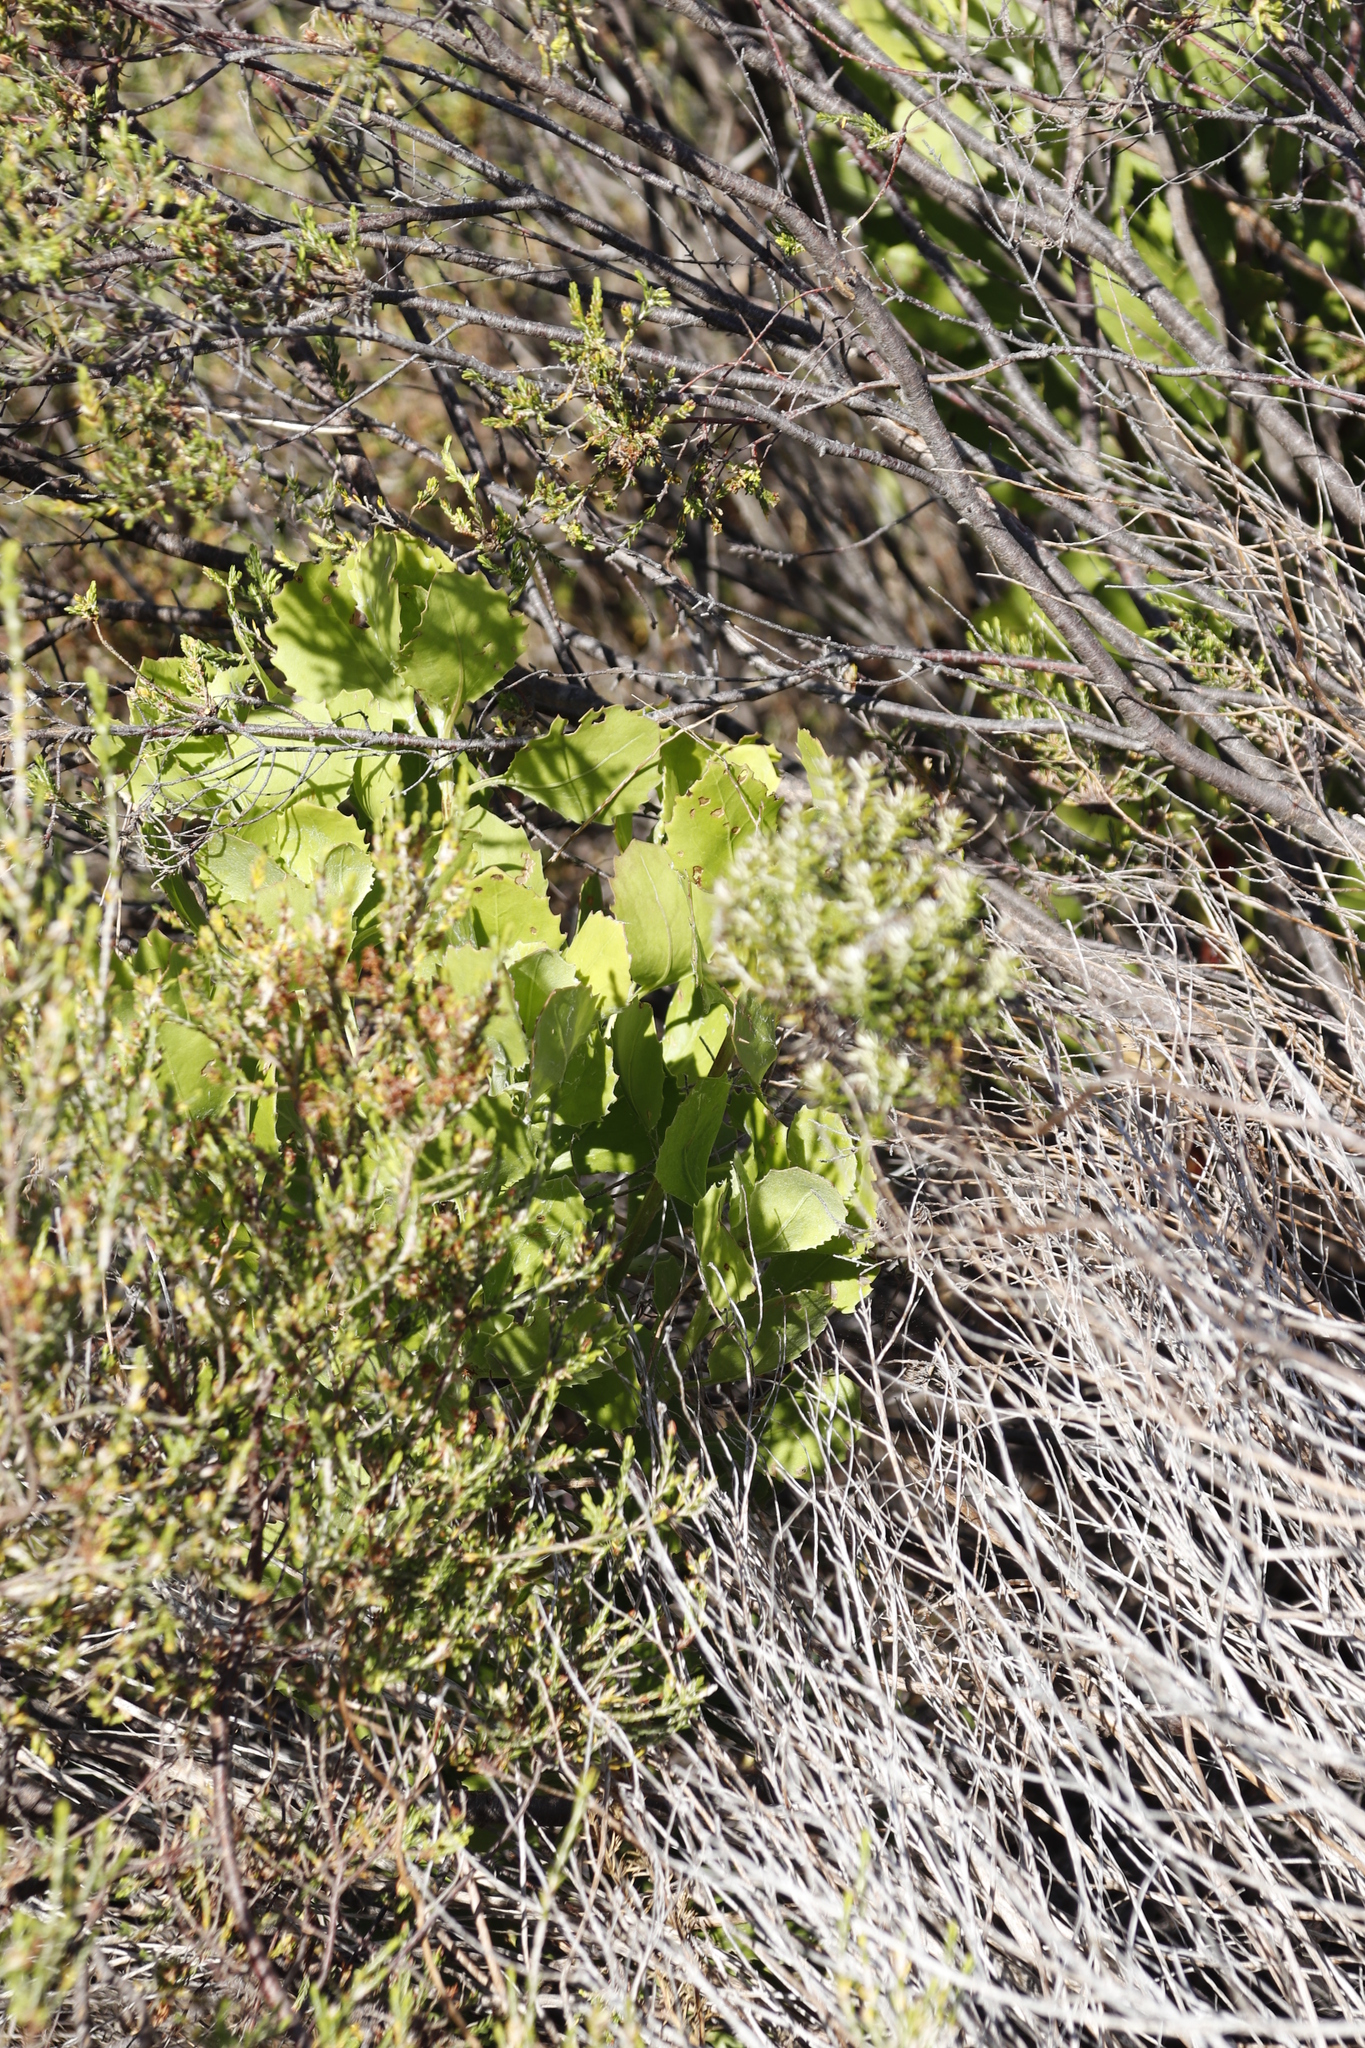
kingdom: Plantae
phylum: Tracheophyta
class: Magnoliopsida
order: Asterales
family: Asteraceae
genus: Osteospermum
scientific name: Osteospermum moniliferum
